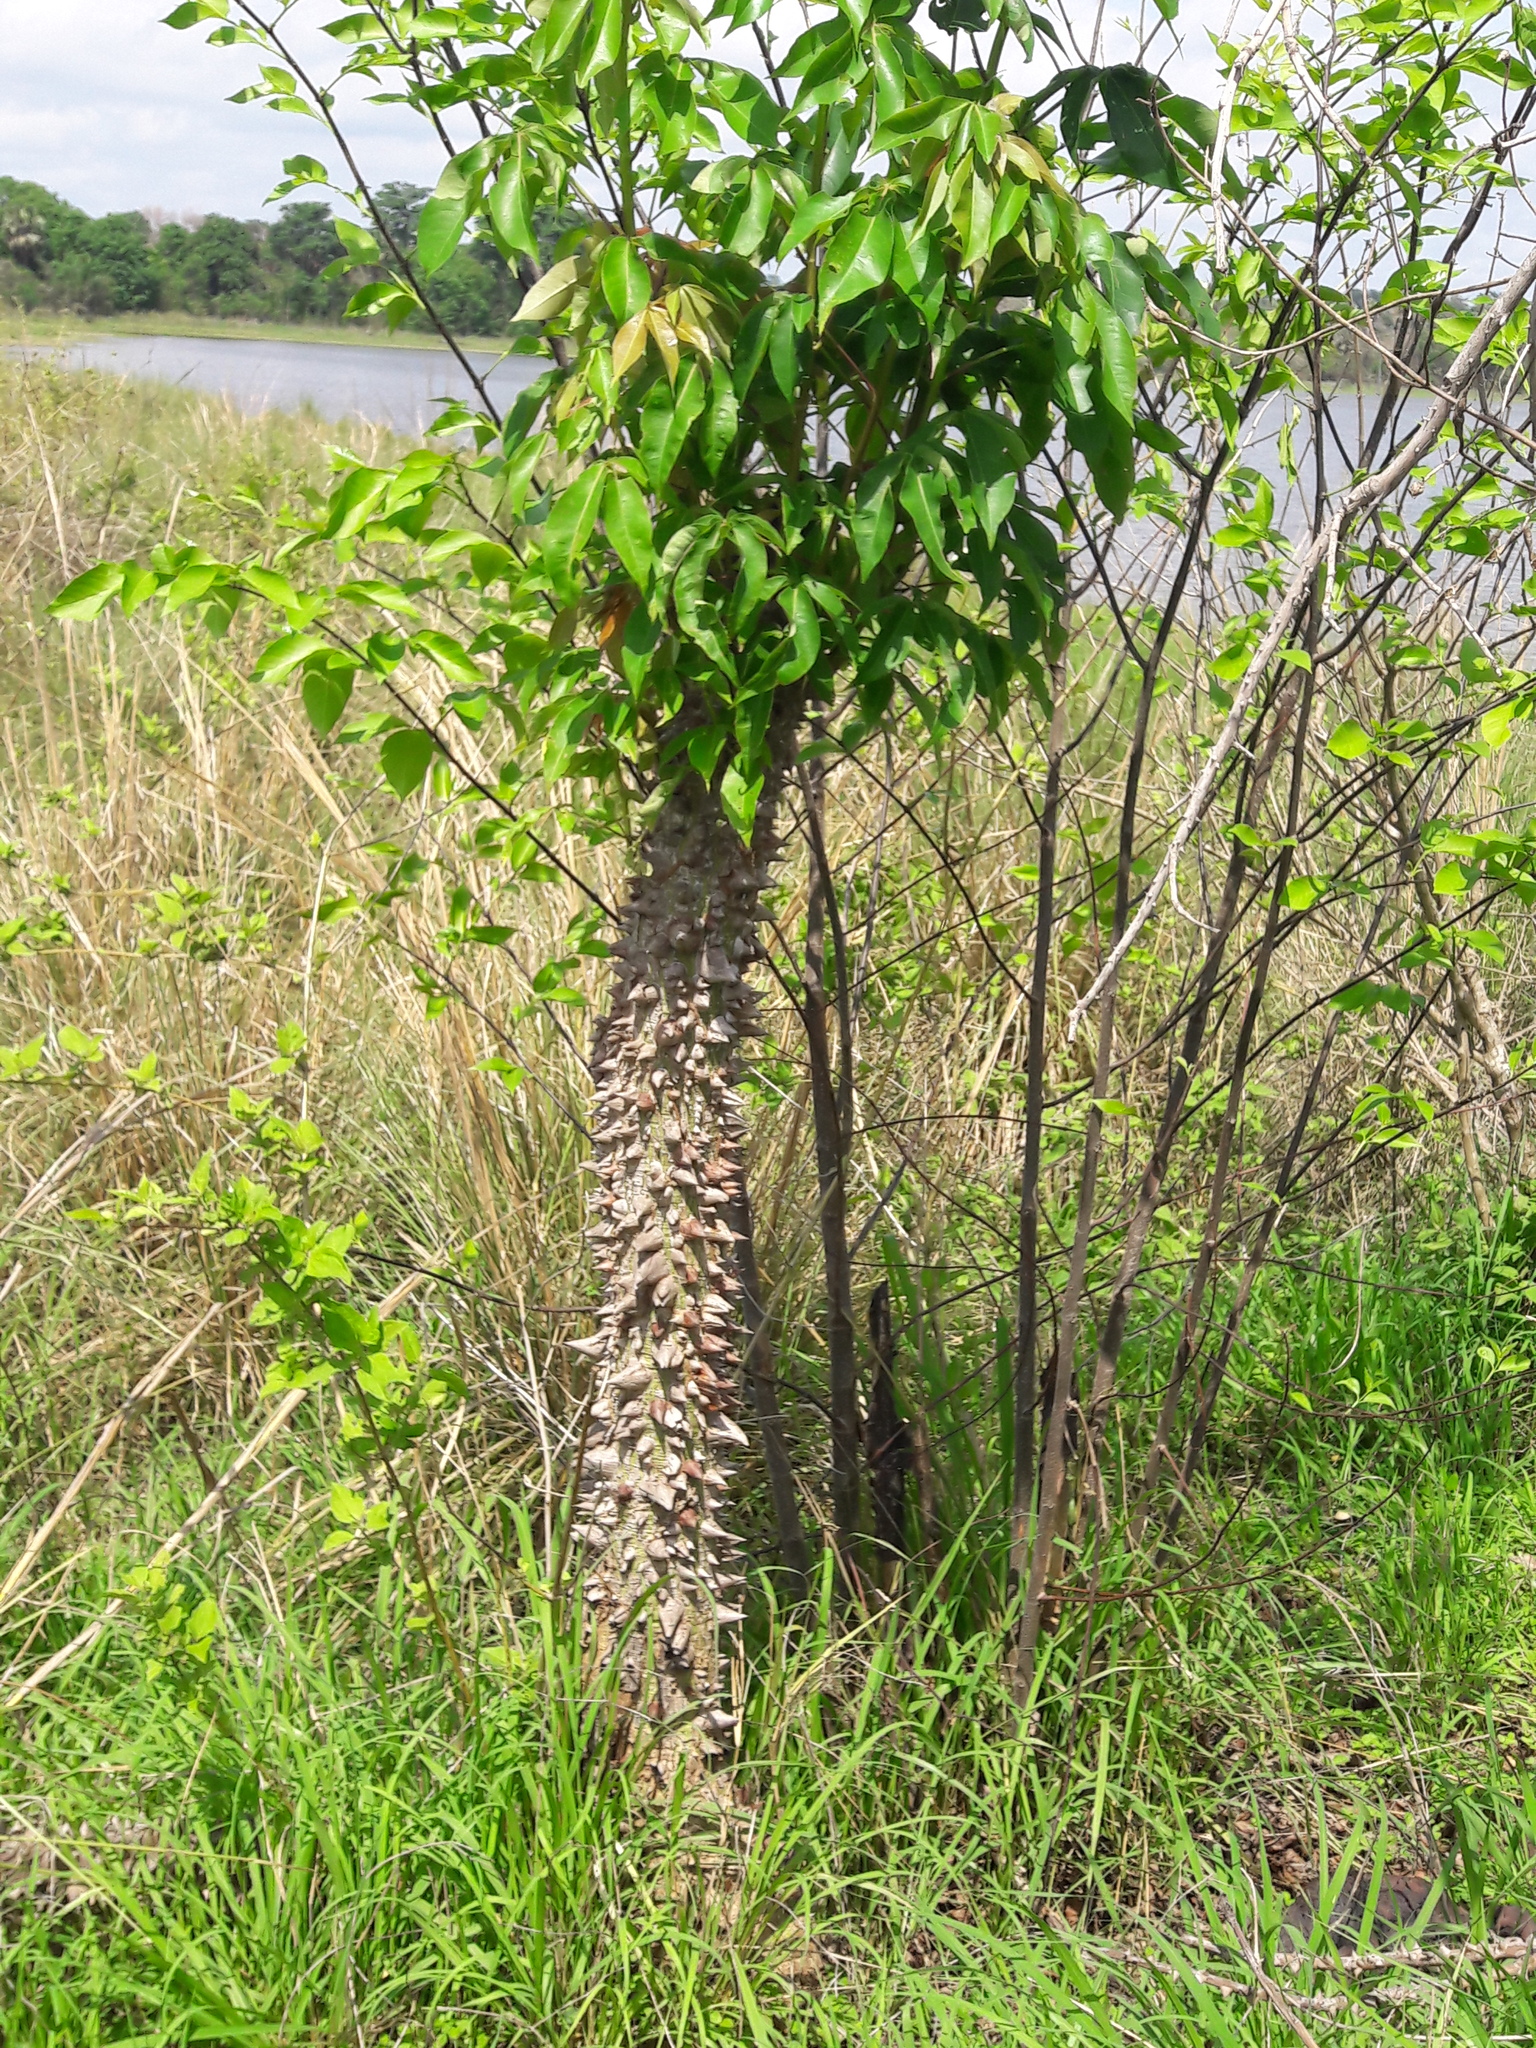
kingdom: Plantae
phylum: Tracheophyta
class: Magnoliopsida
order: Malvales
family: Malvaceae
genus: Ceiba
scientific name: Ceiba pentandra
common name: Kapok
